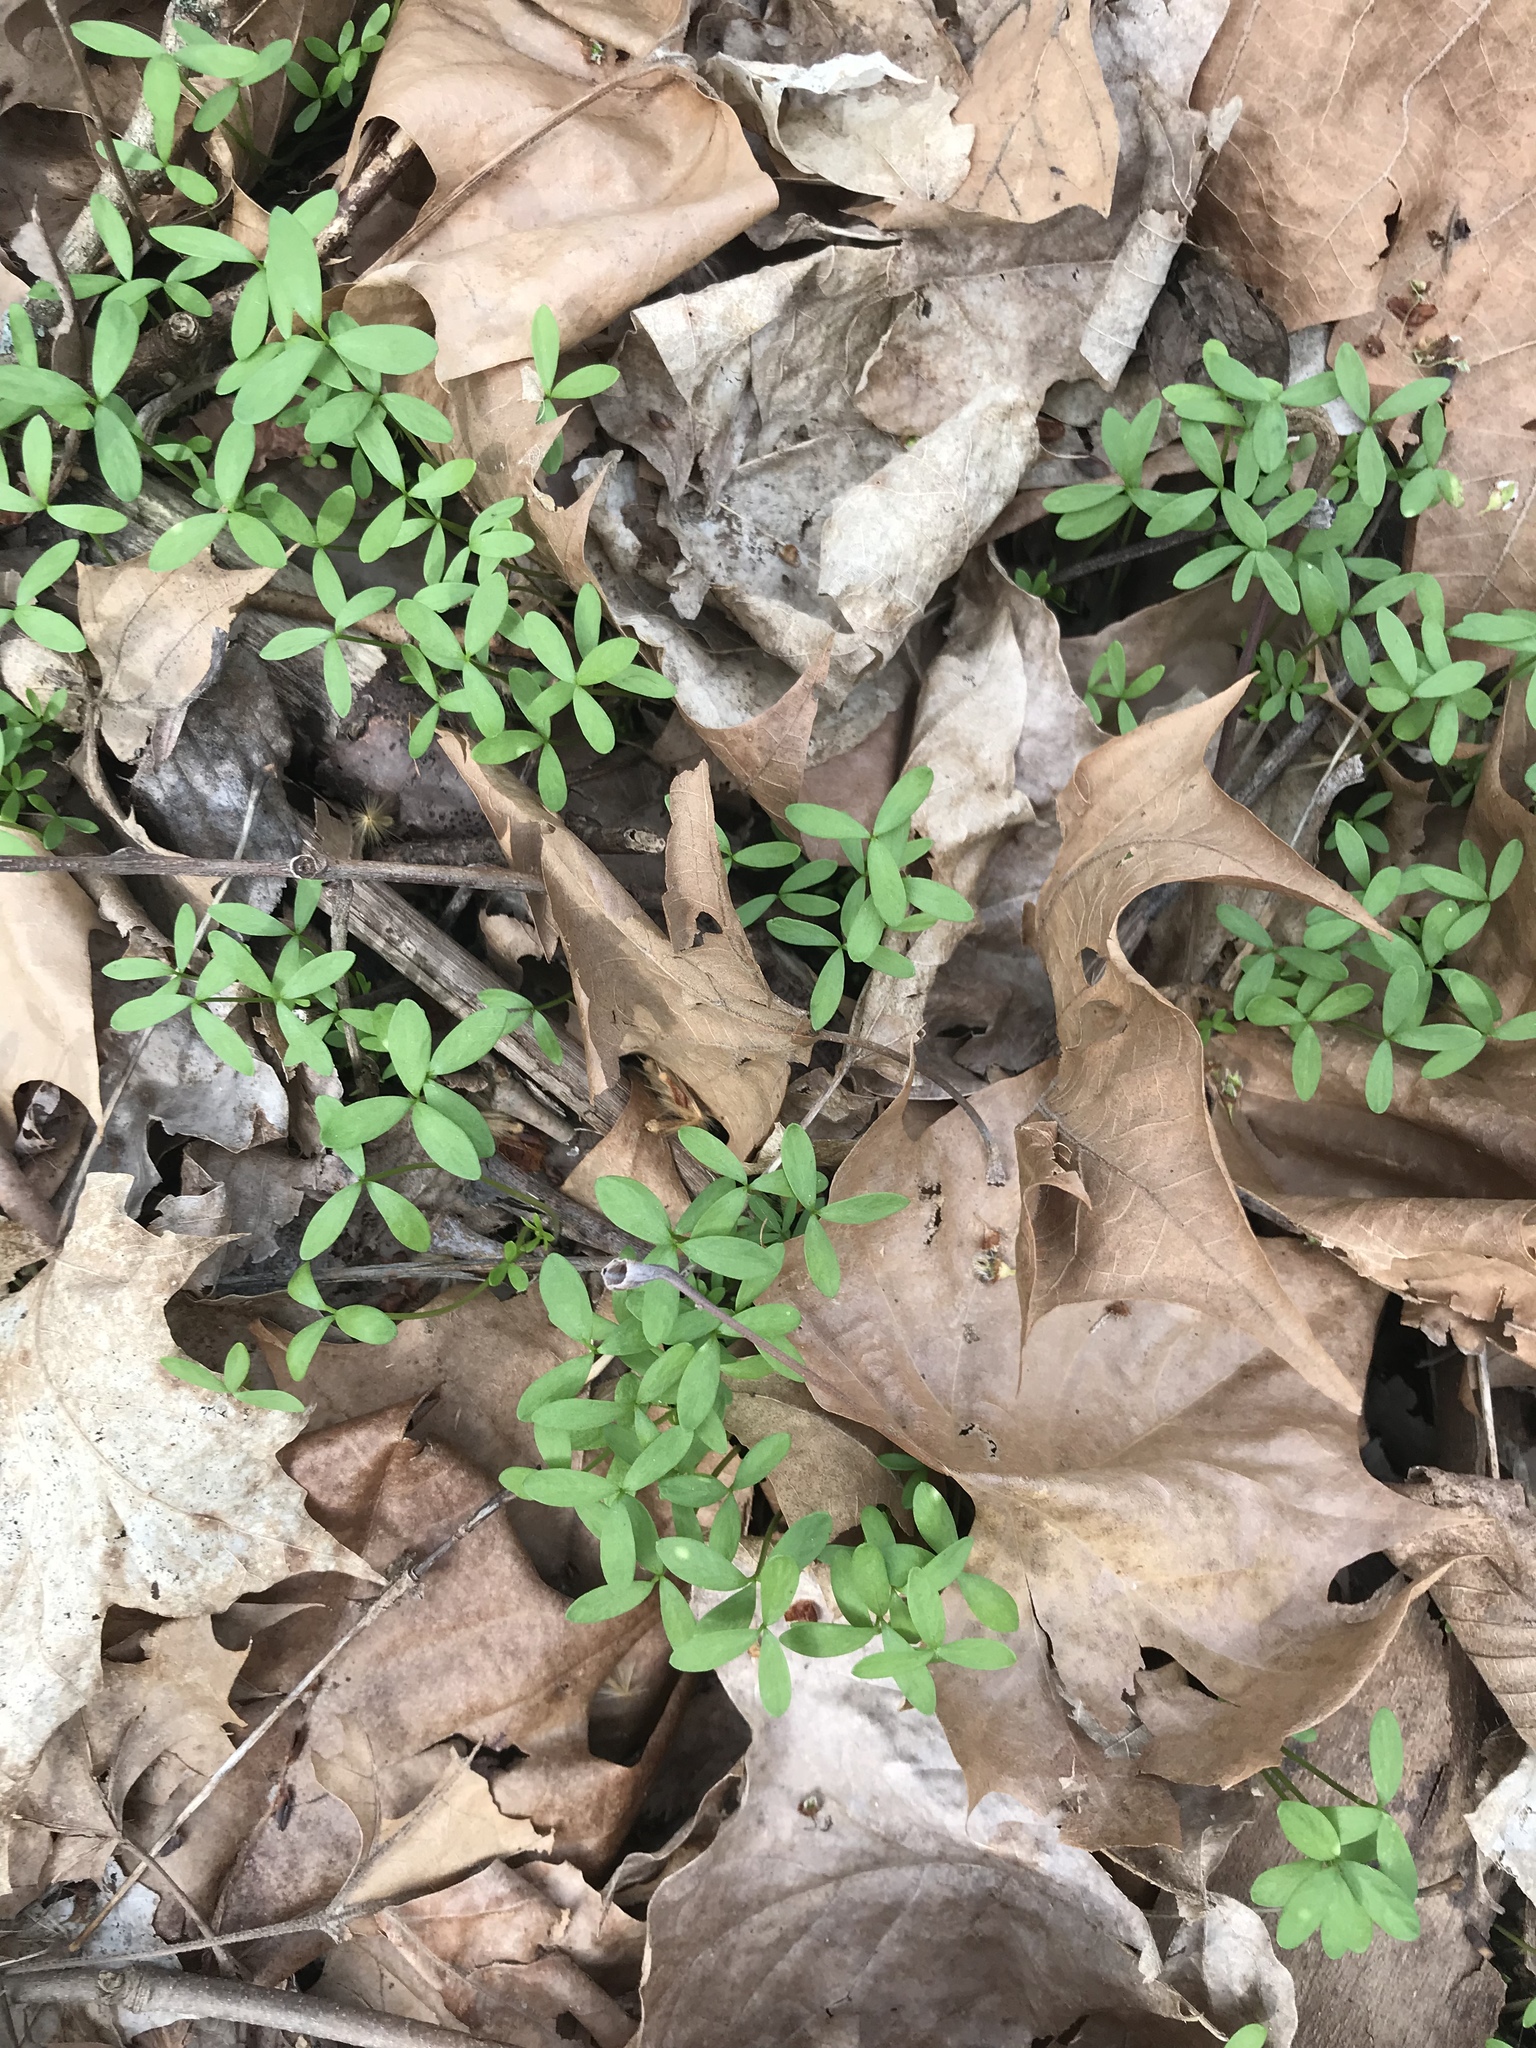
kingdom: Plantae
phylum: Tracheophyta
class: Magnoliopsida
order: Brassicales
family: Limnanthaceae
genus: Floerkea
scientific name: Floerkea proserpinacoides
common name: False mermaid
